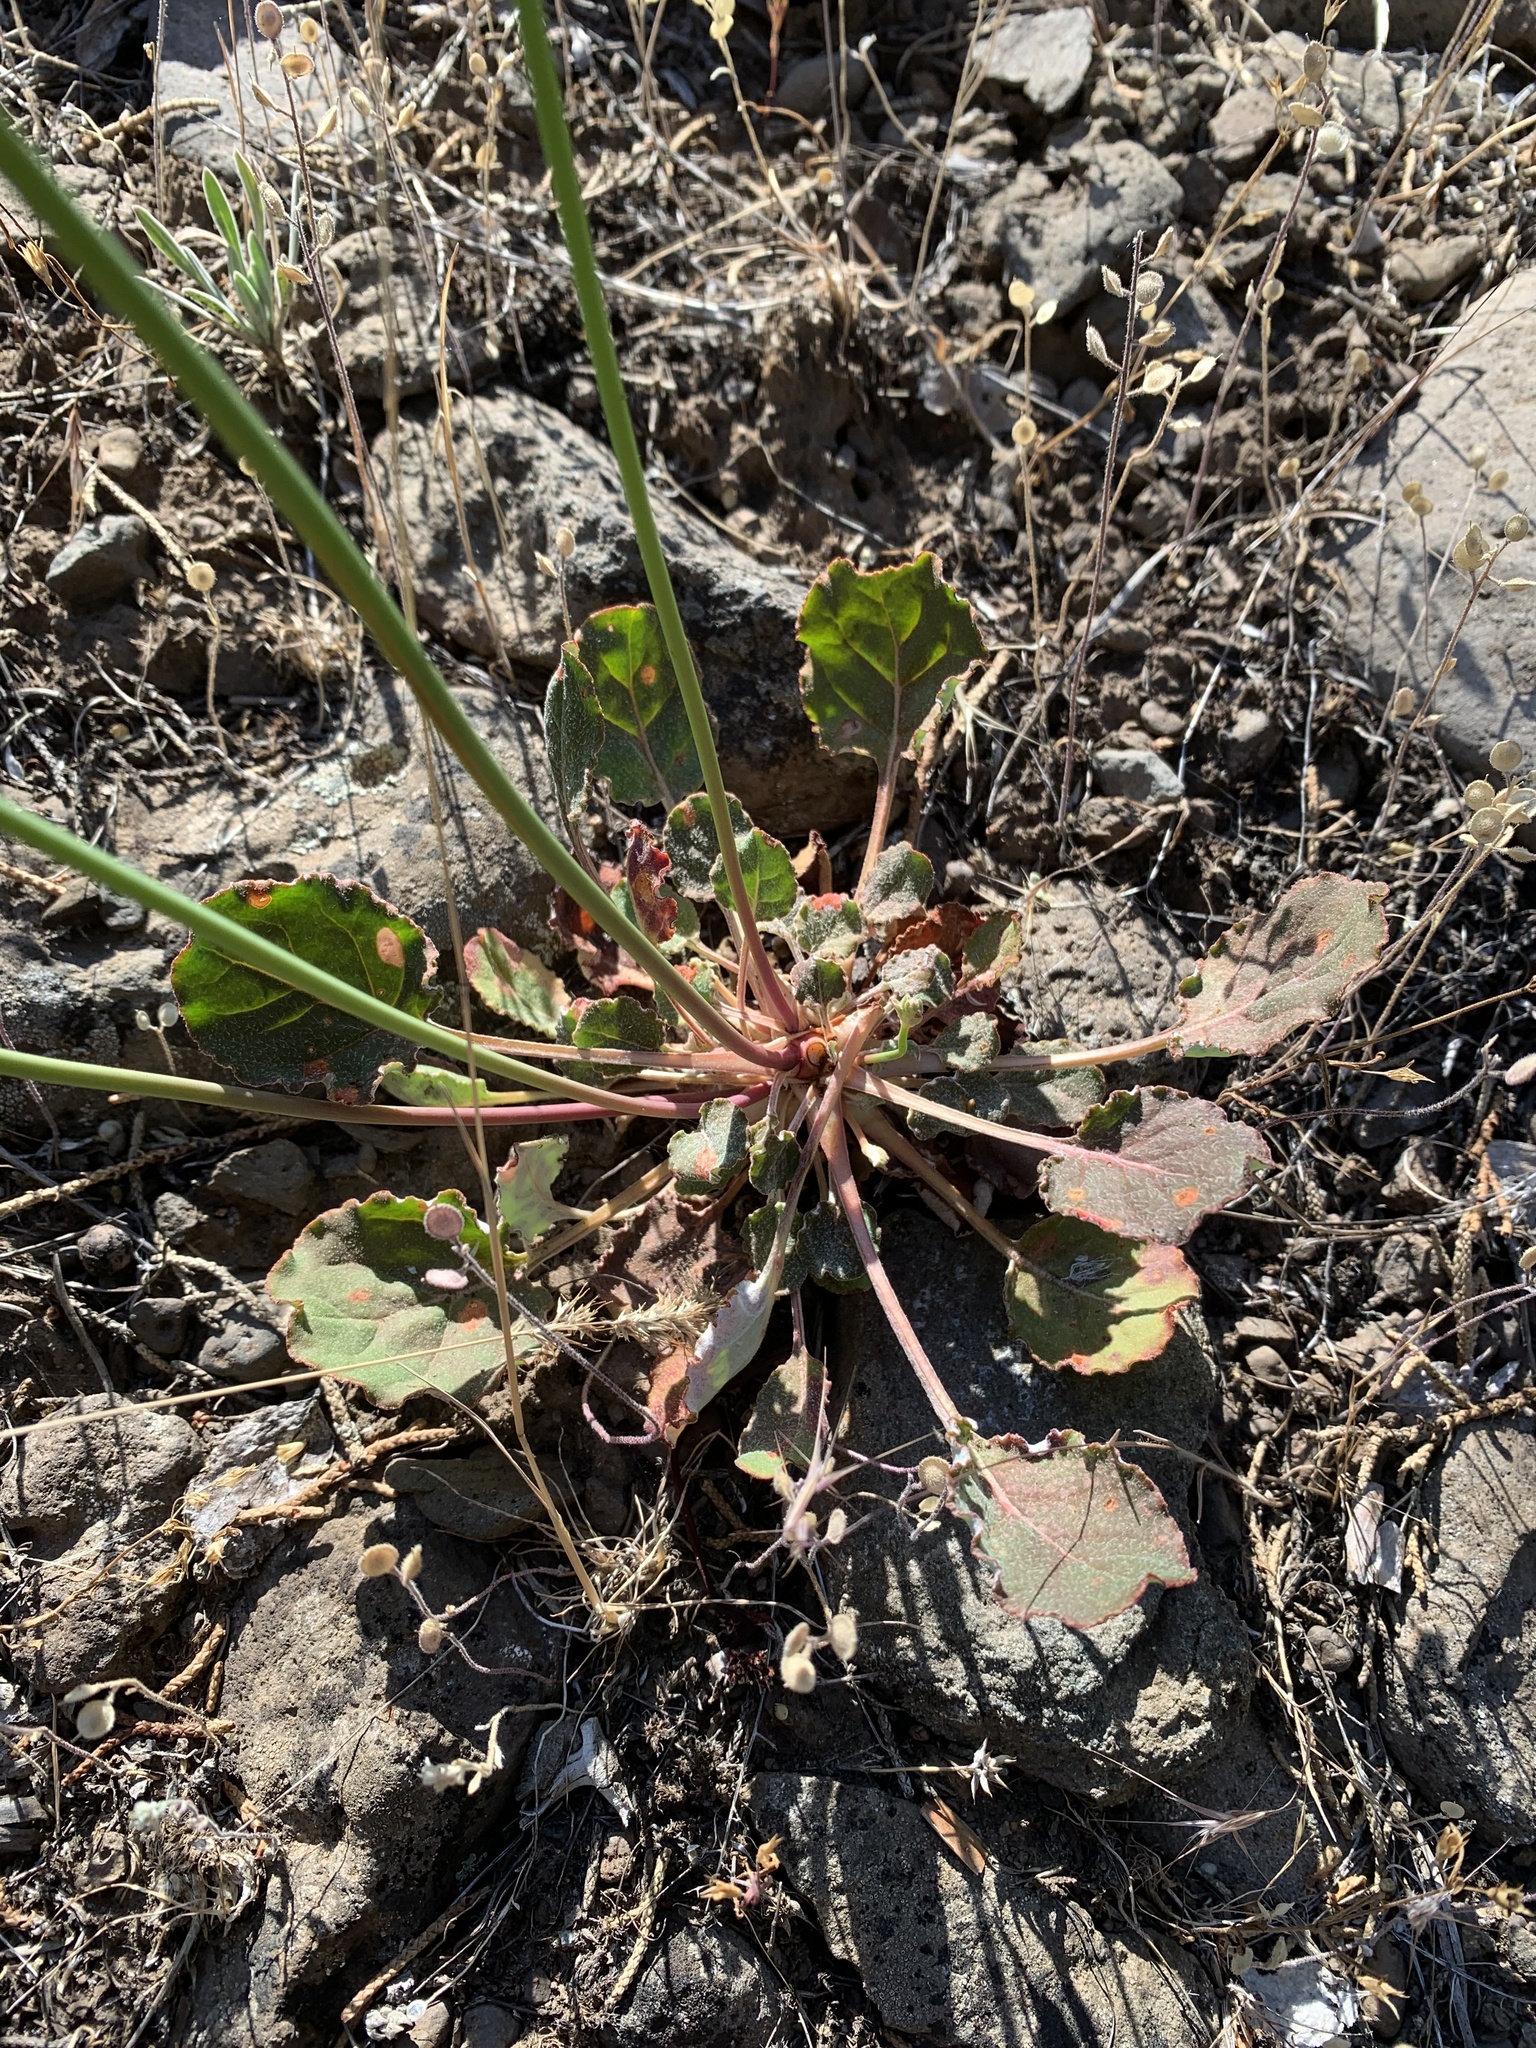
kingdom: Plantae
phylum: Tracheophyta
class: Magnoliopsida
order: Caryophyllales
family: Polygonaceae
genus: Eriogonum
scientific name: Eriogonum nudum
